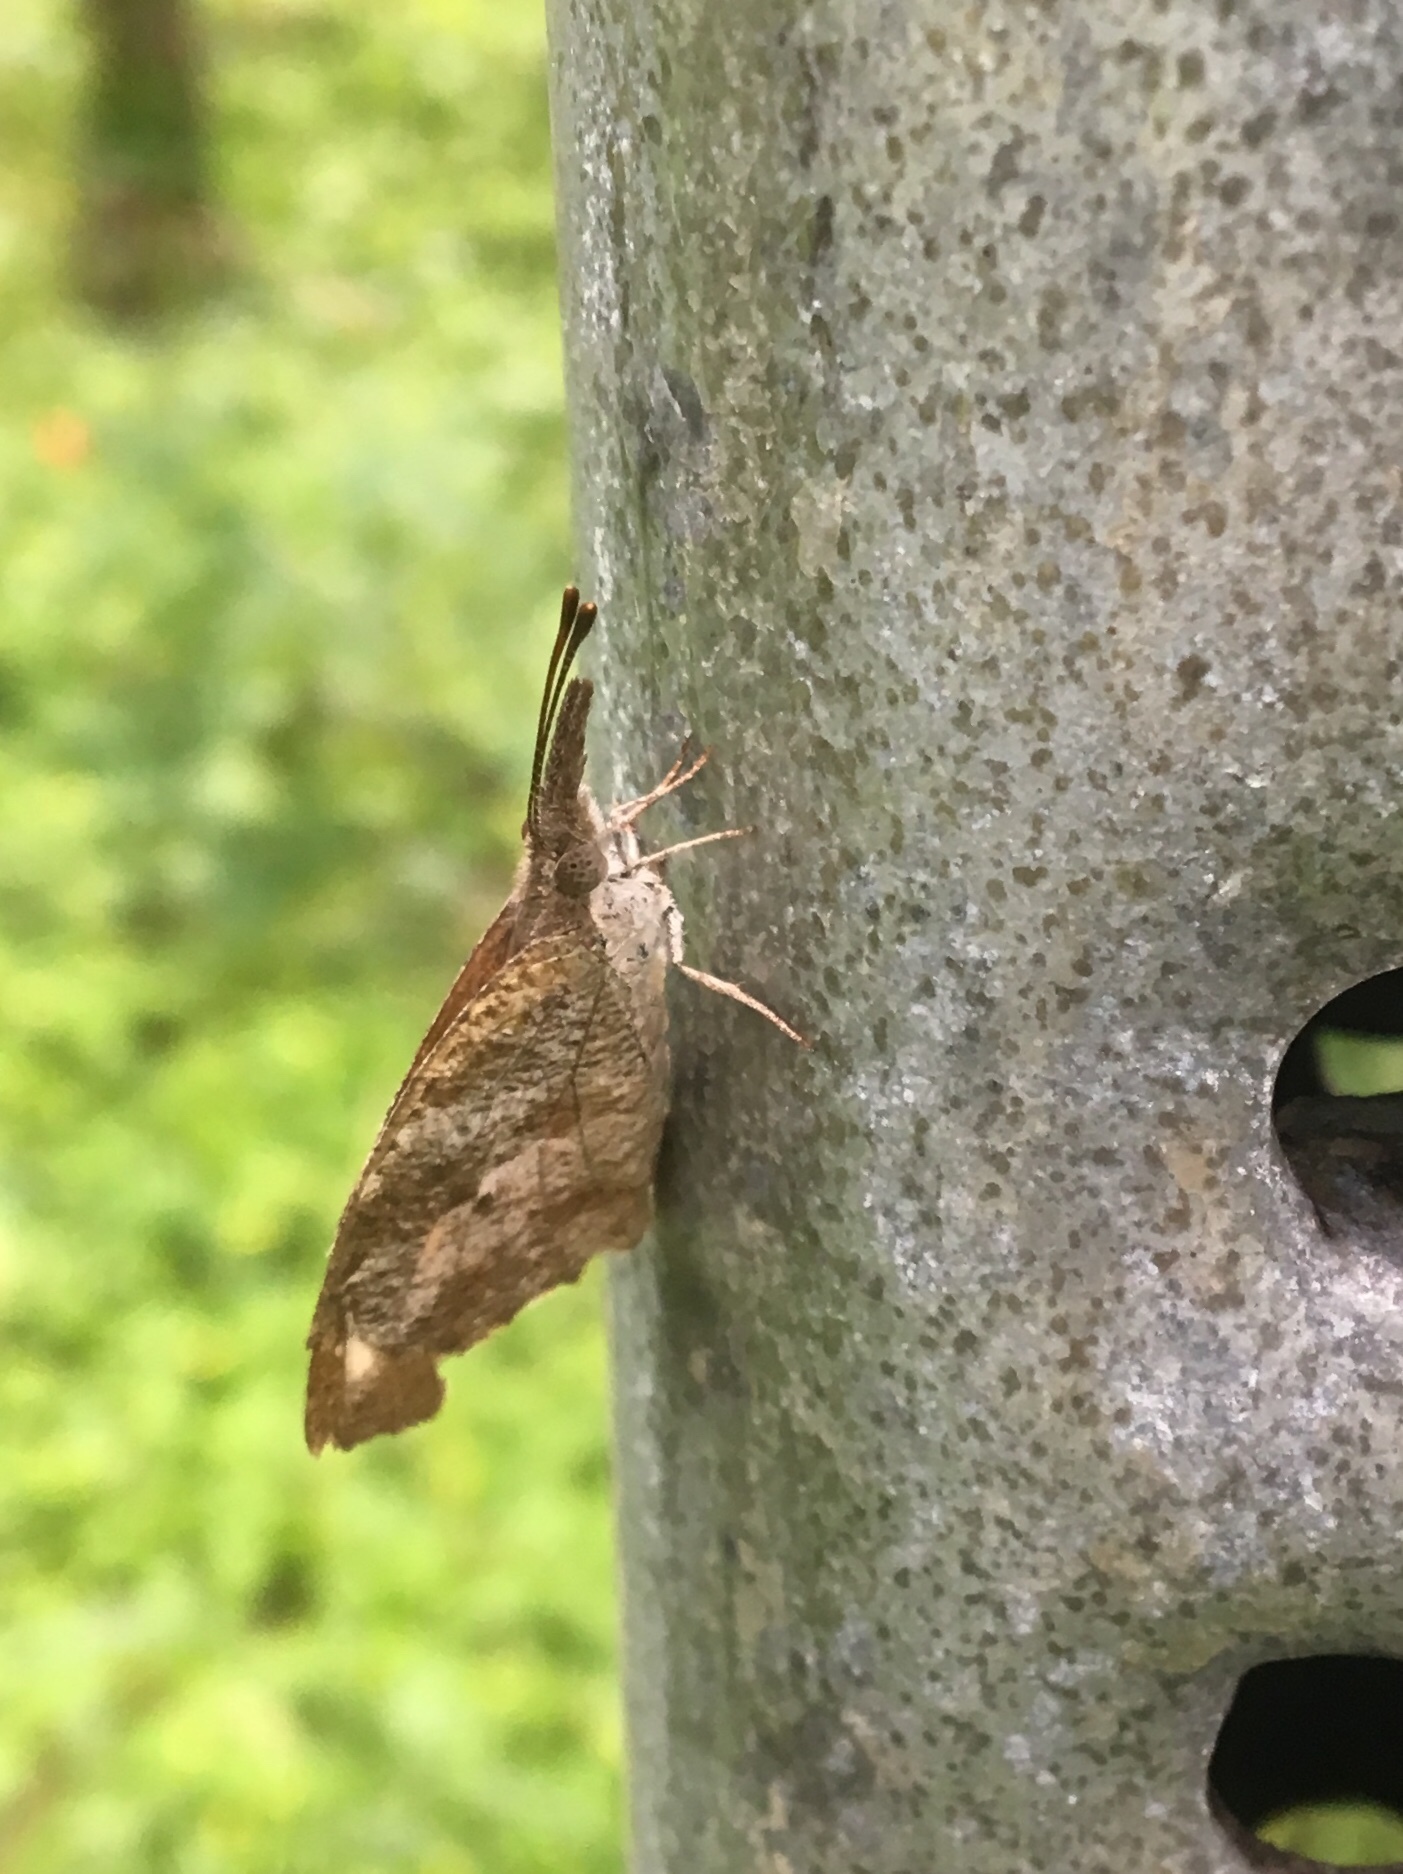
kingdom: Animalia
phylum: Arthropoda
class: Insecta
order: Lepidoptera
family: Nymphalidae
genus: Libytheana
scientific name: Libytheana carinenta
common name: American snout
